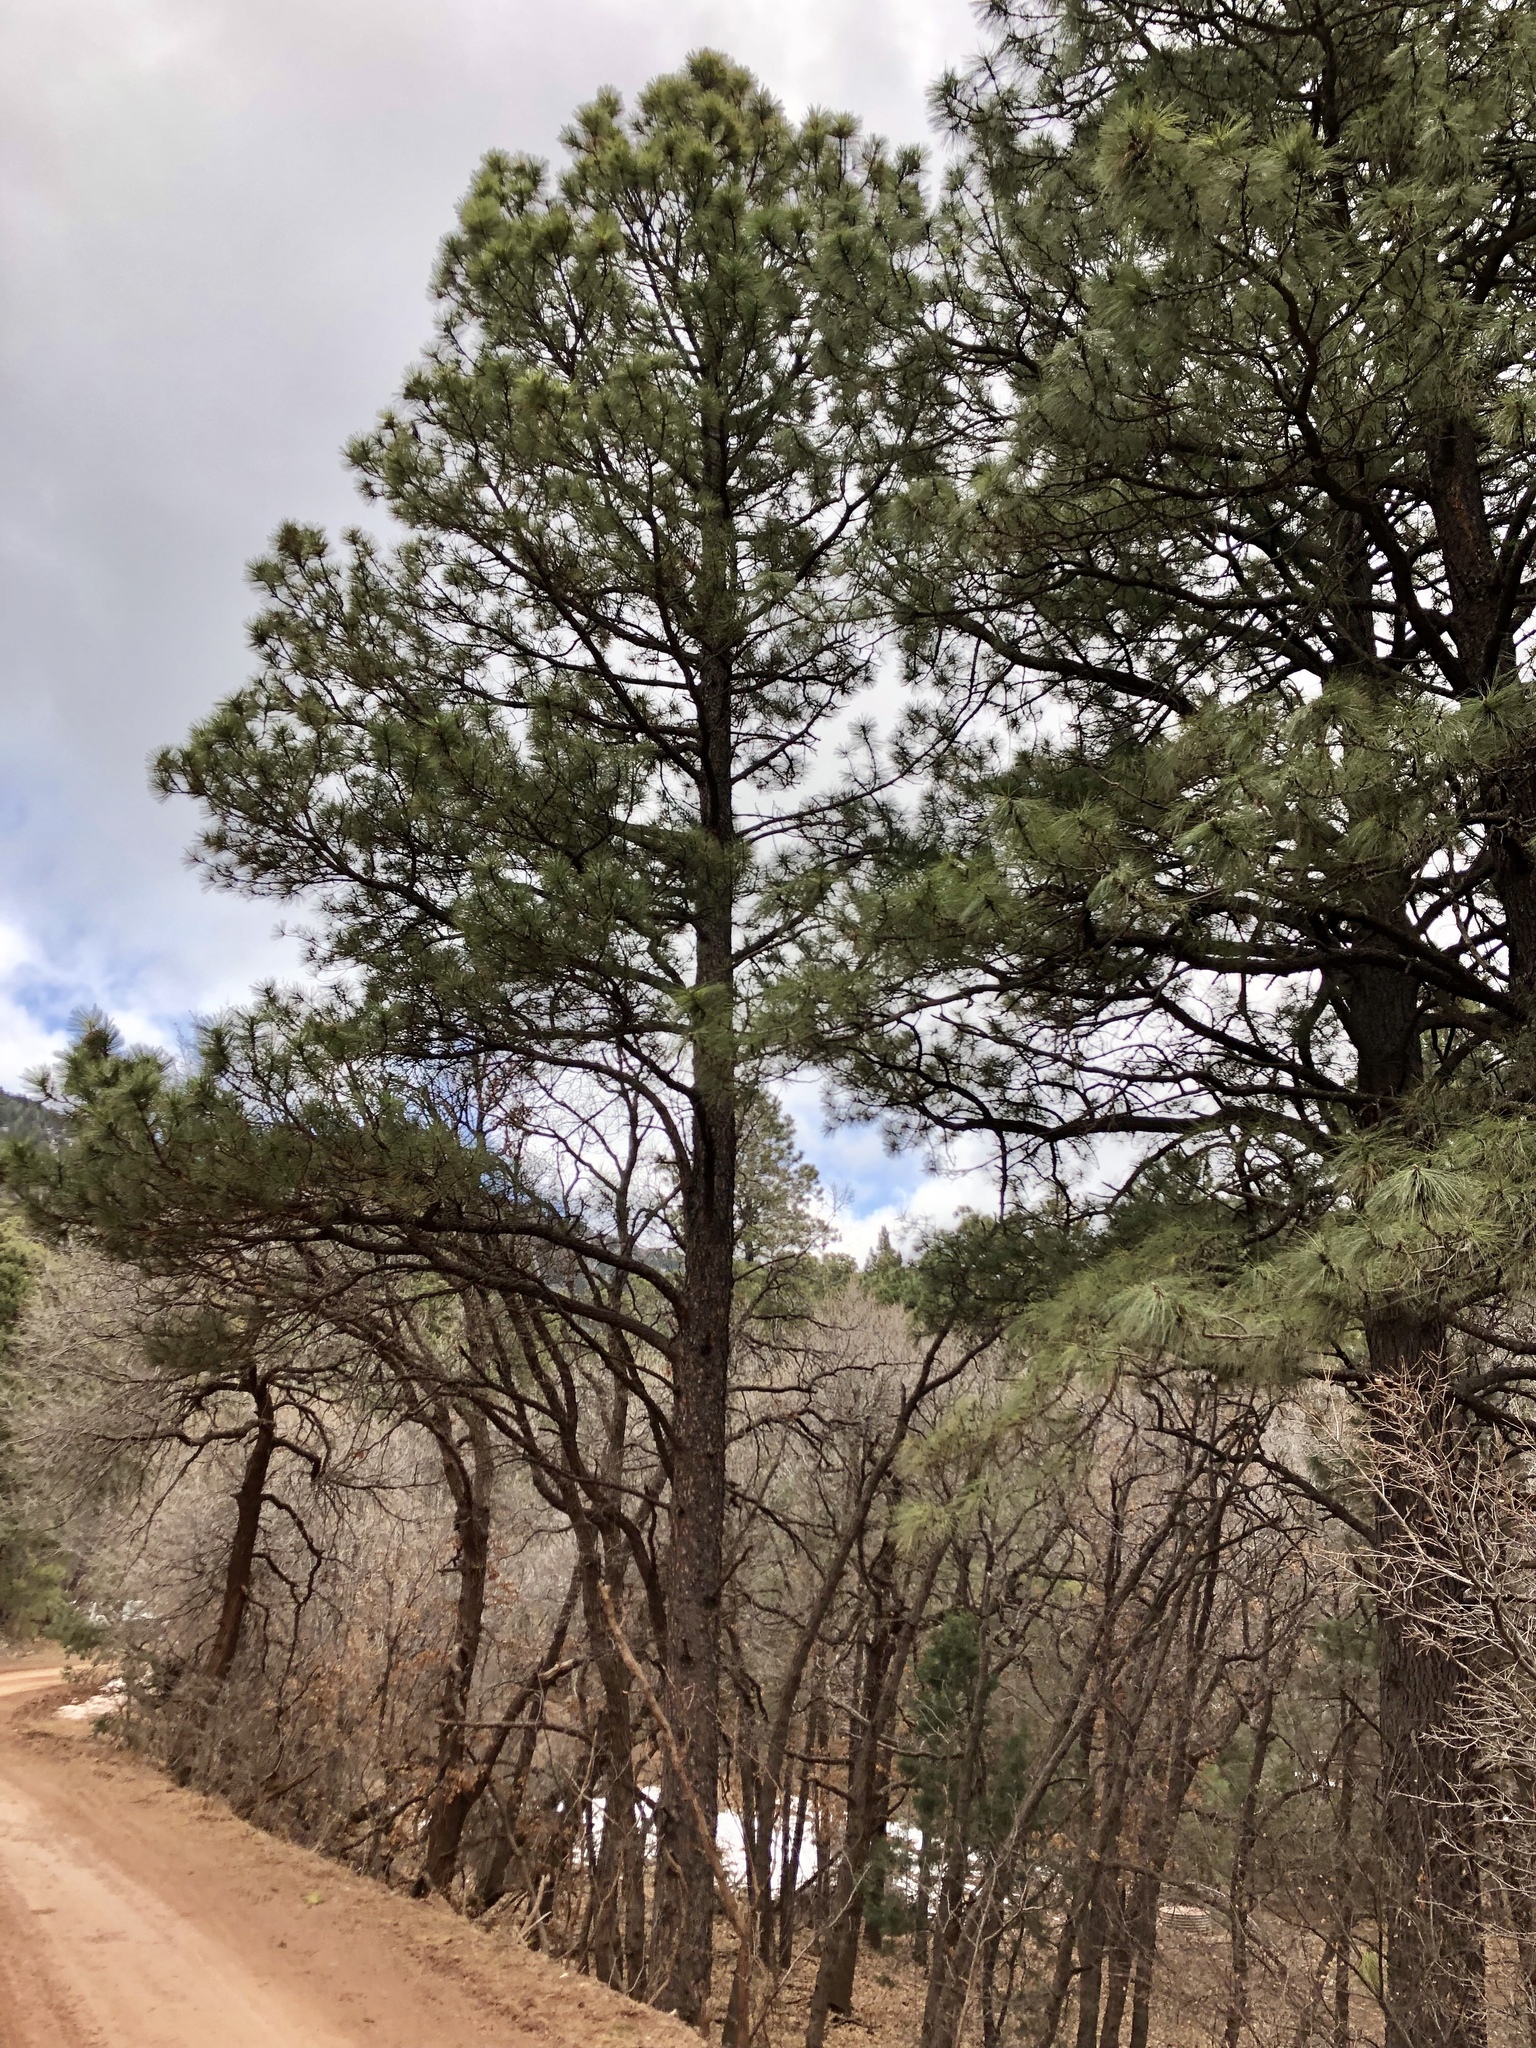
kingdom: Plantae
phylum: Tracheophyta
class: Pinopsida
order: Pinales
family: Pinaceae
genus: Pinus
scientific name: Pinus ponderosa
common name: Western yellow-pine
